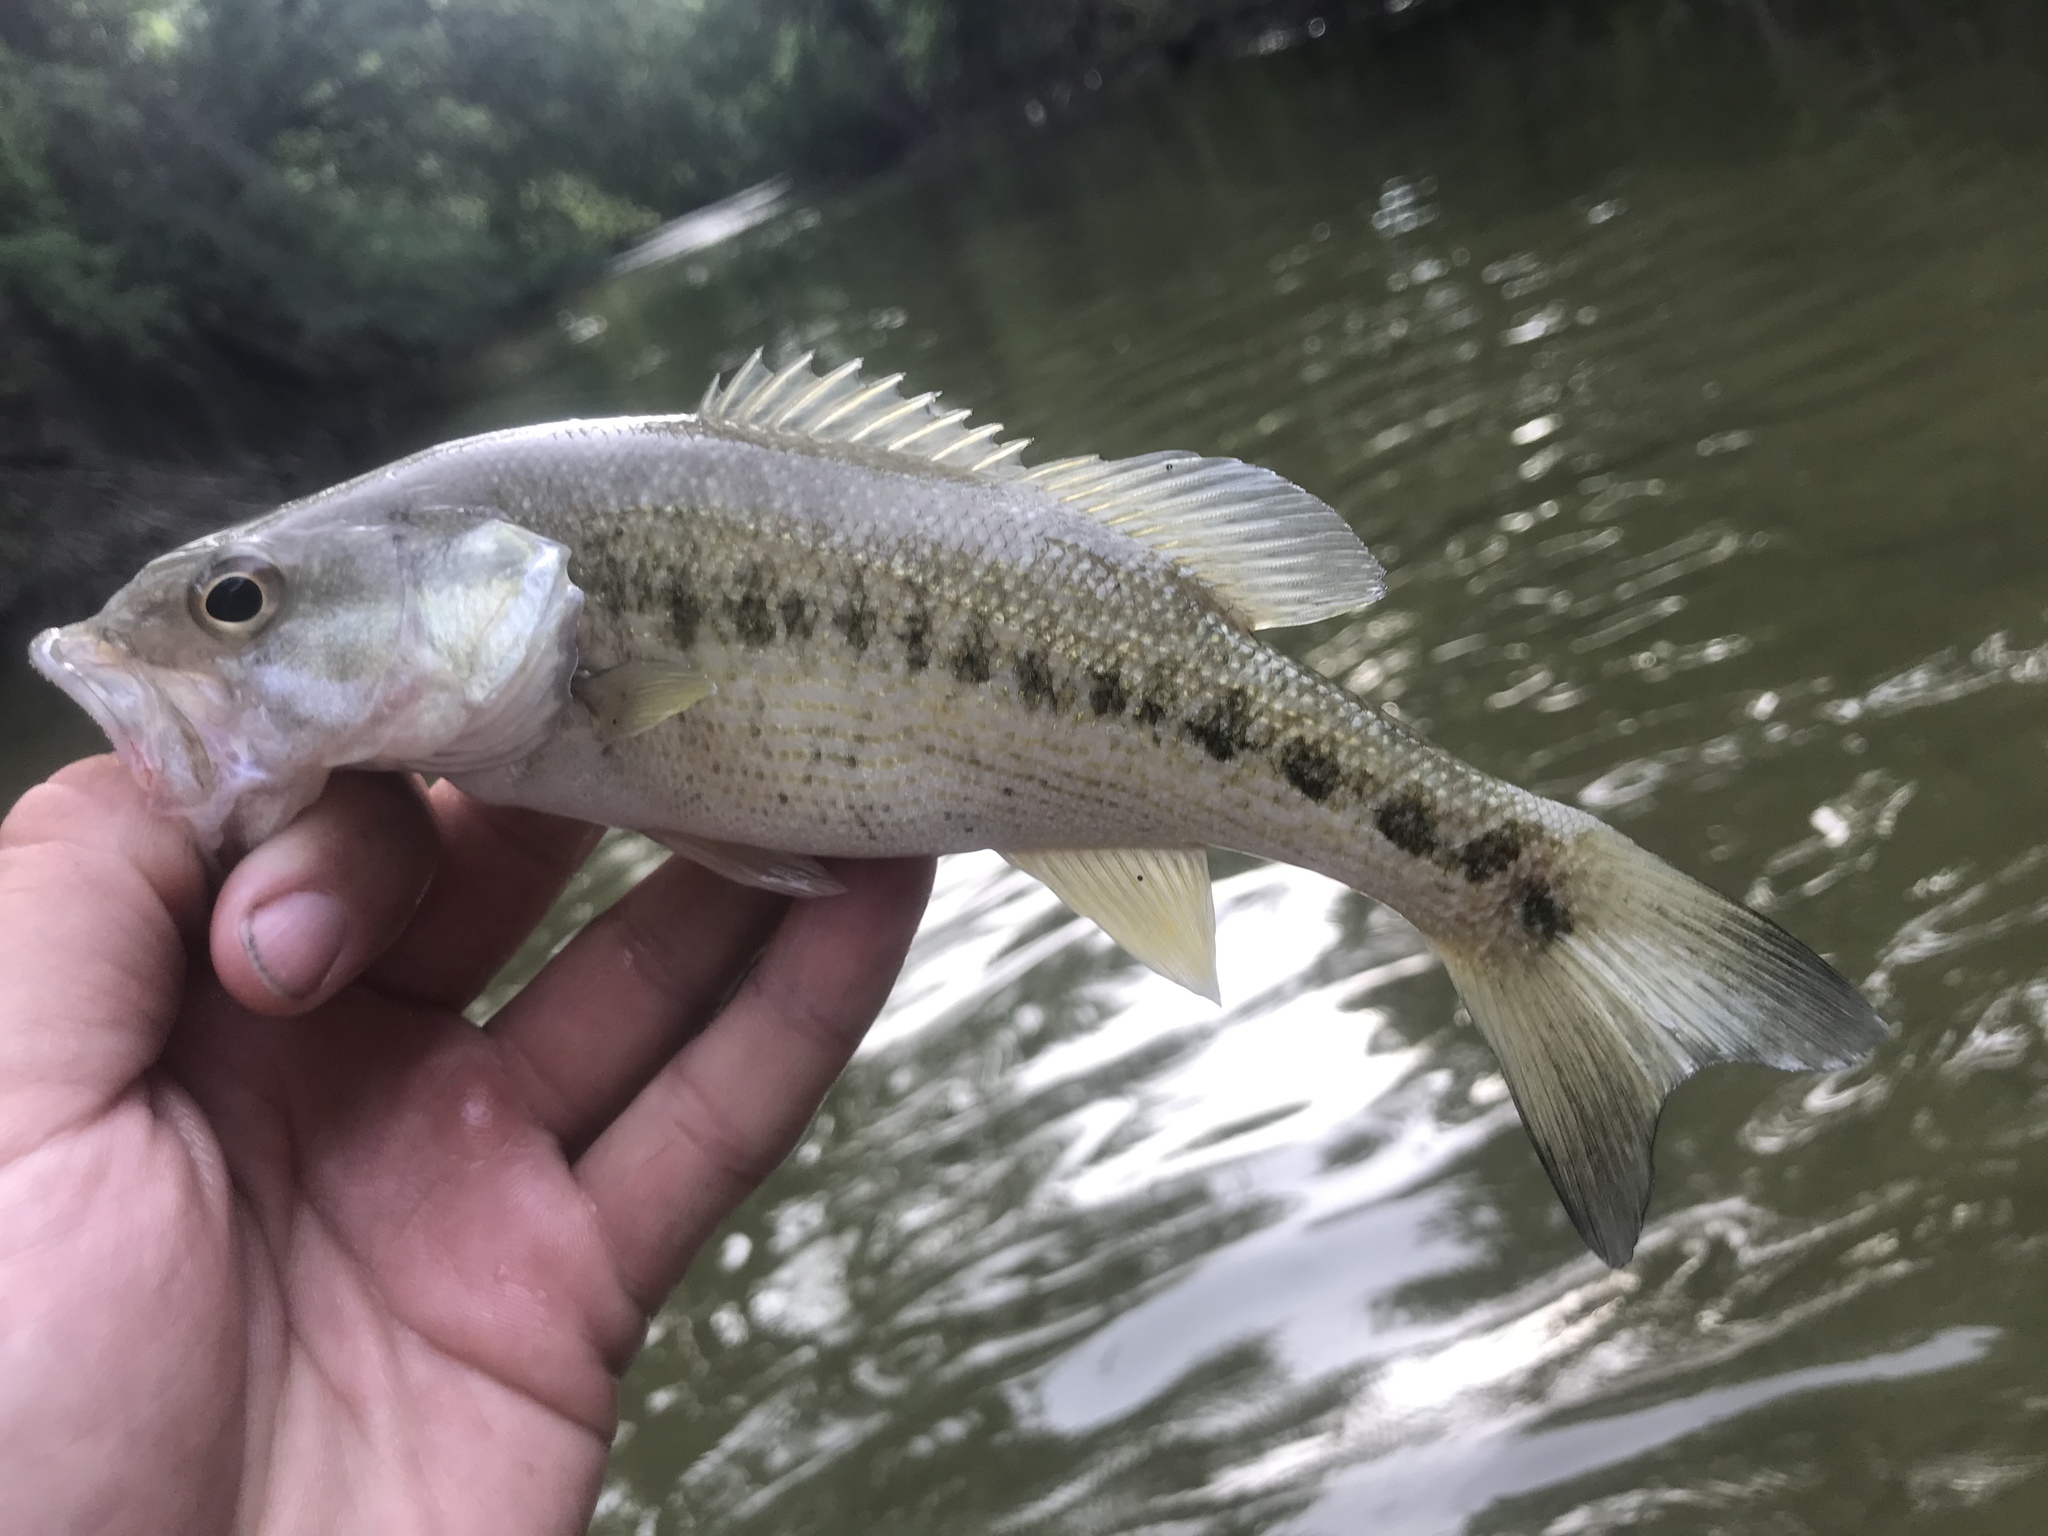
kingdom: Animalia
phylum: Chordata
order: Perciformes
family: Centrarchidae
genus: Micropterus
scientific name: Micropterus treculii
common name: Guadalupe bass
